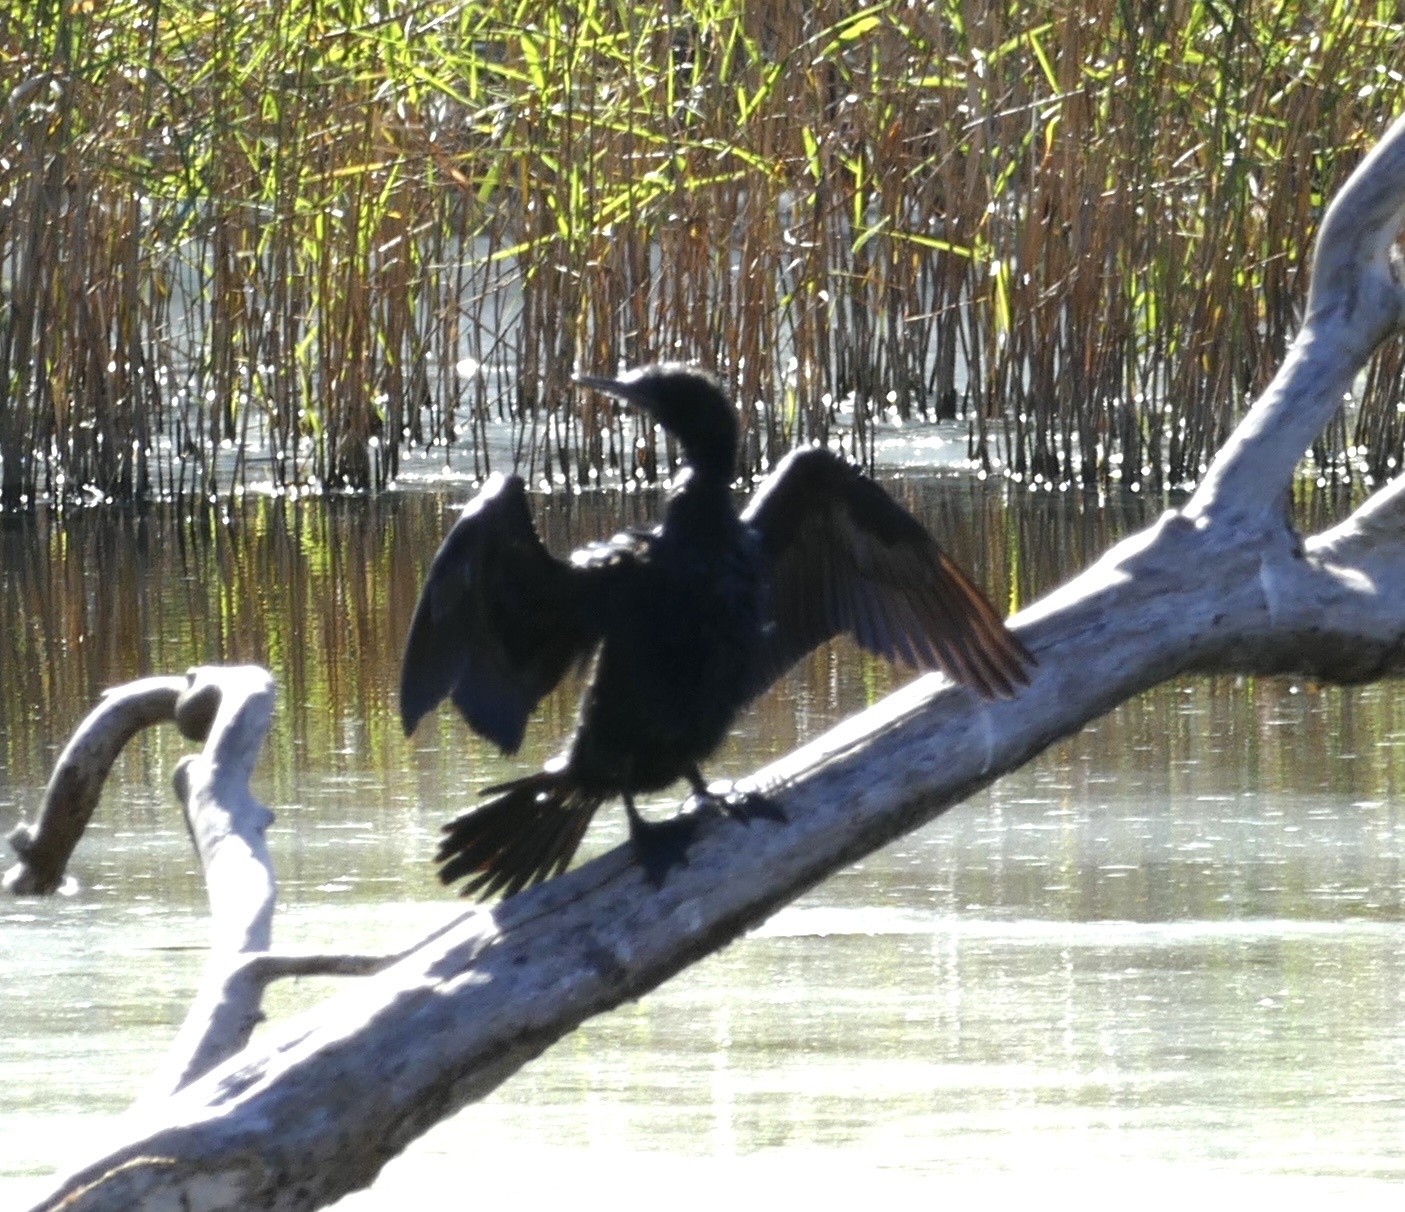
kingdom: Animalia
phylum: Chordata
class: Aves
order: Suliformes
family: Phalacrocoracidae
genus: Phalacrocorax
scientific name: Phalacrocorax sulcirostris
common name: Little black cormorant
